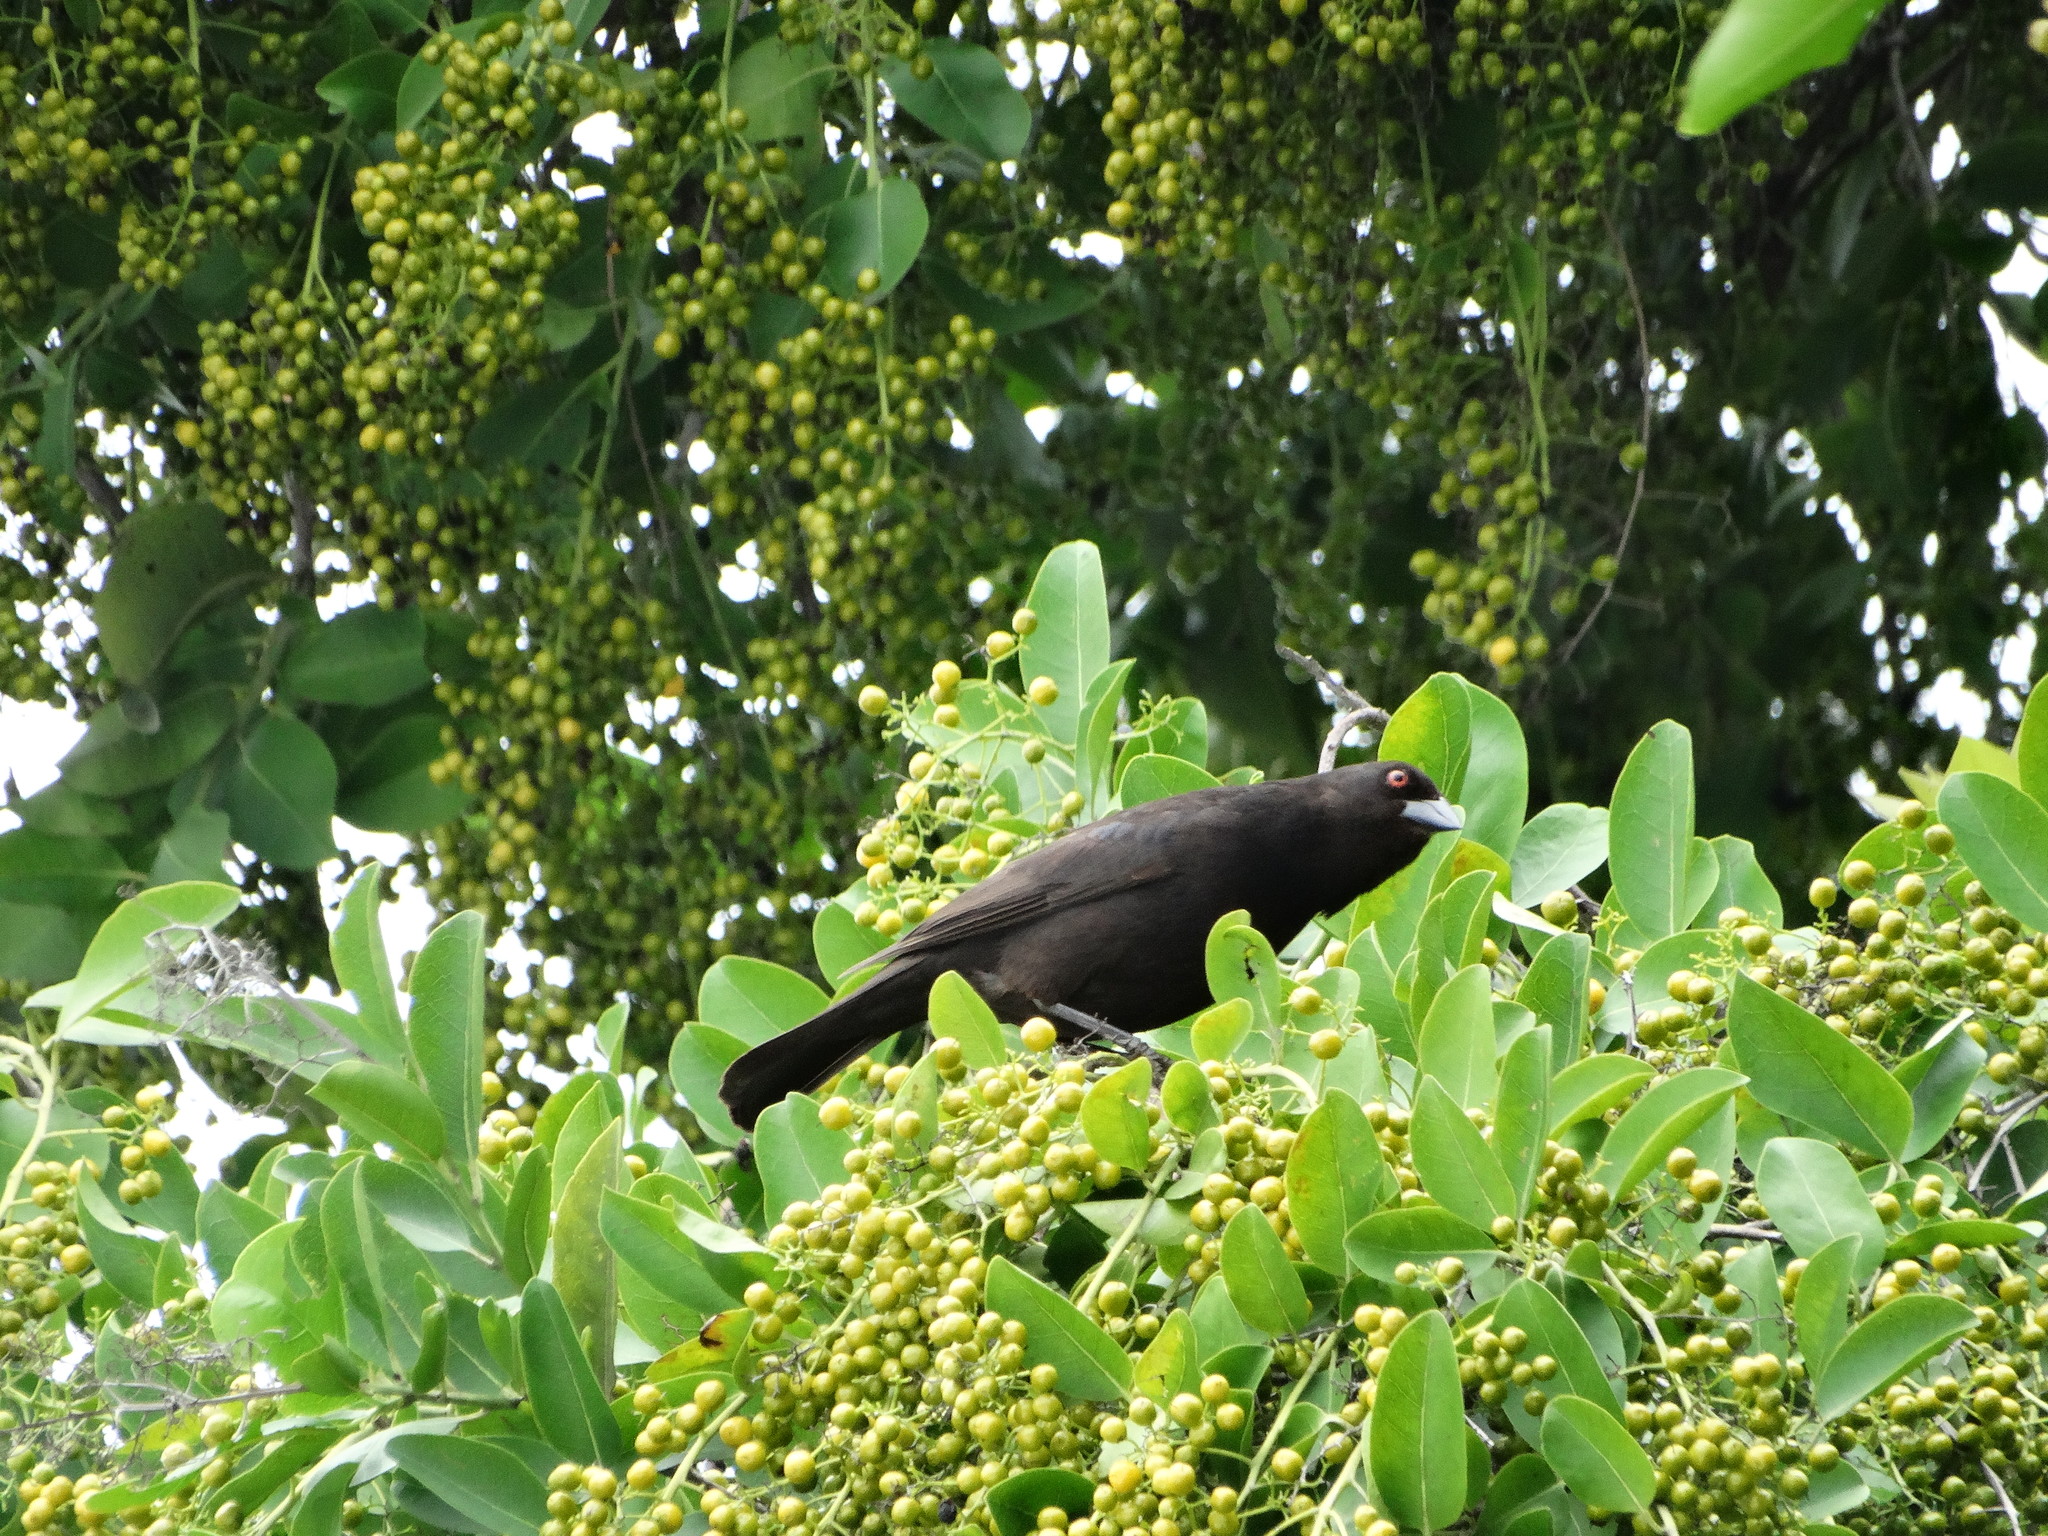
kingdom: Animalia
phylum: Chordata
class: Aves
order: Passeriformes
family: Icteridae
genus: Molothrus
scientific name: Molothrus aeneus
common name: Bronzed cowbird
